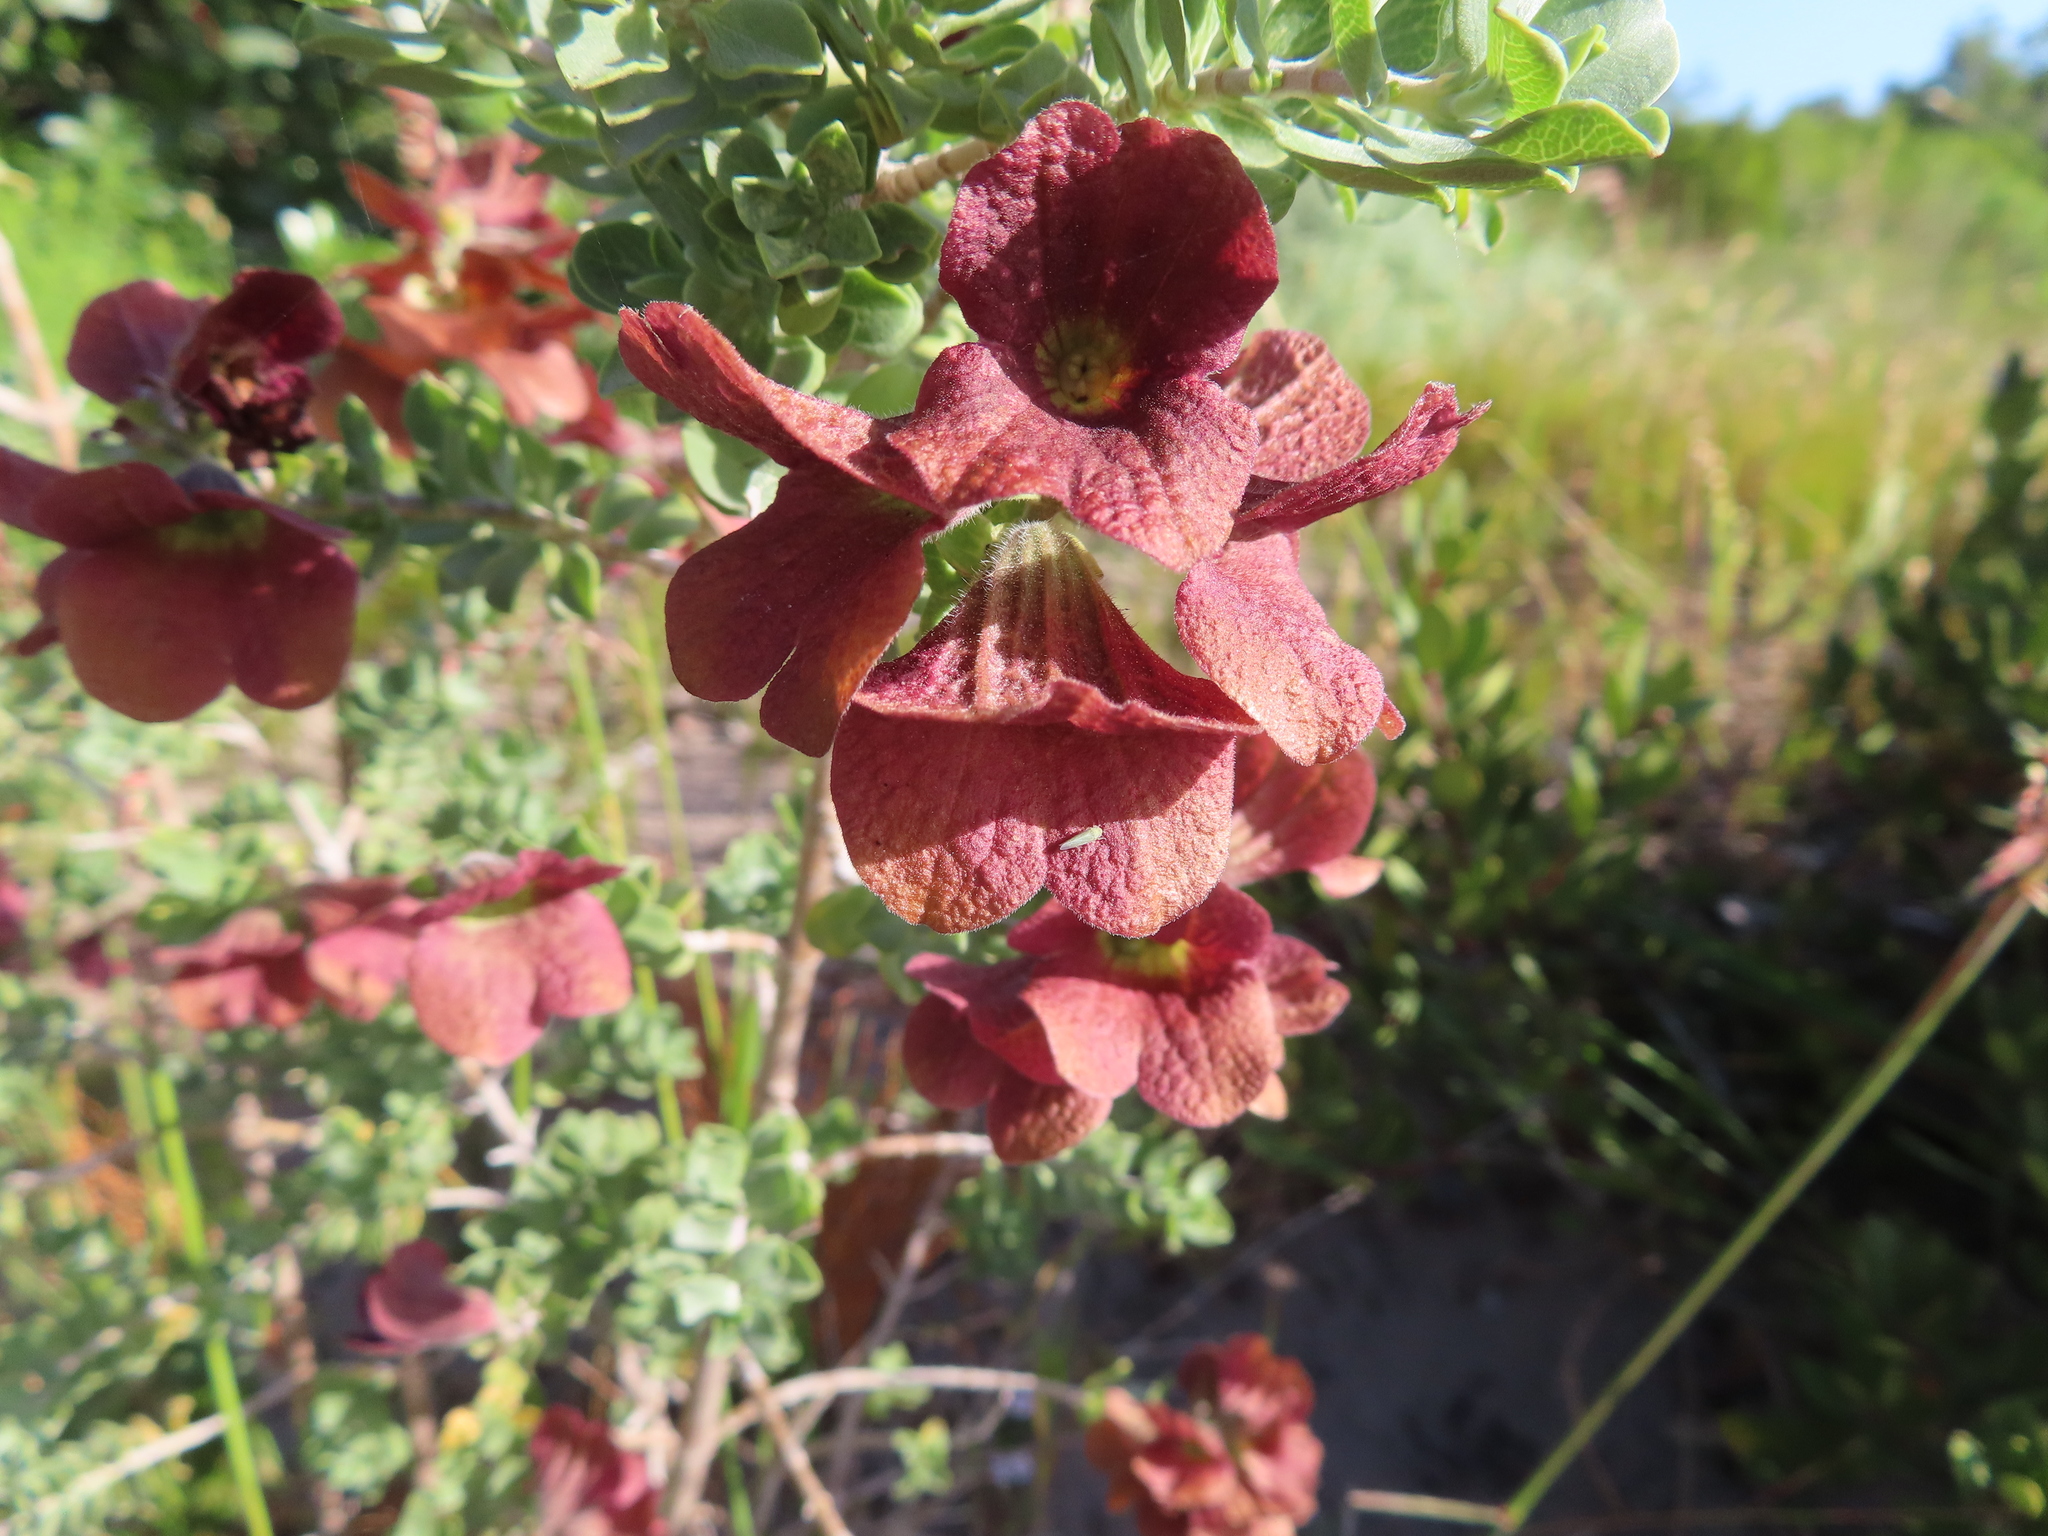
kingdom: Plantae
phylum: Tracheophyta
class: Magnoliopsida
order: Lamiales
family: Lamiaceae
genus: Salvia
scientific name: Salvia aurea
